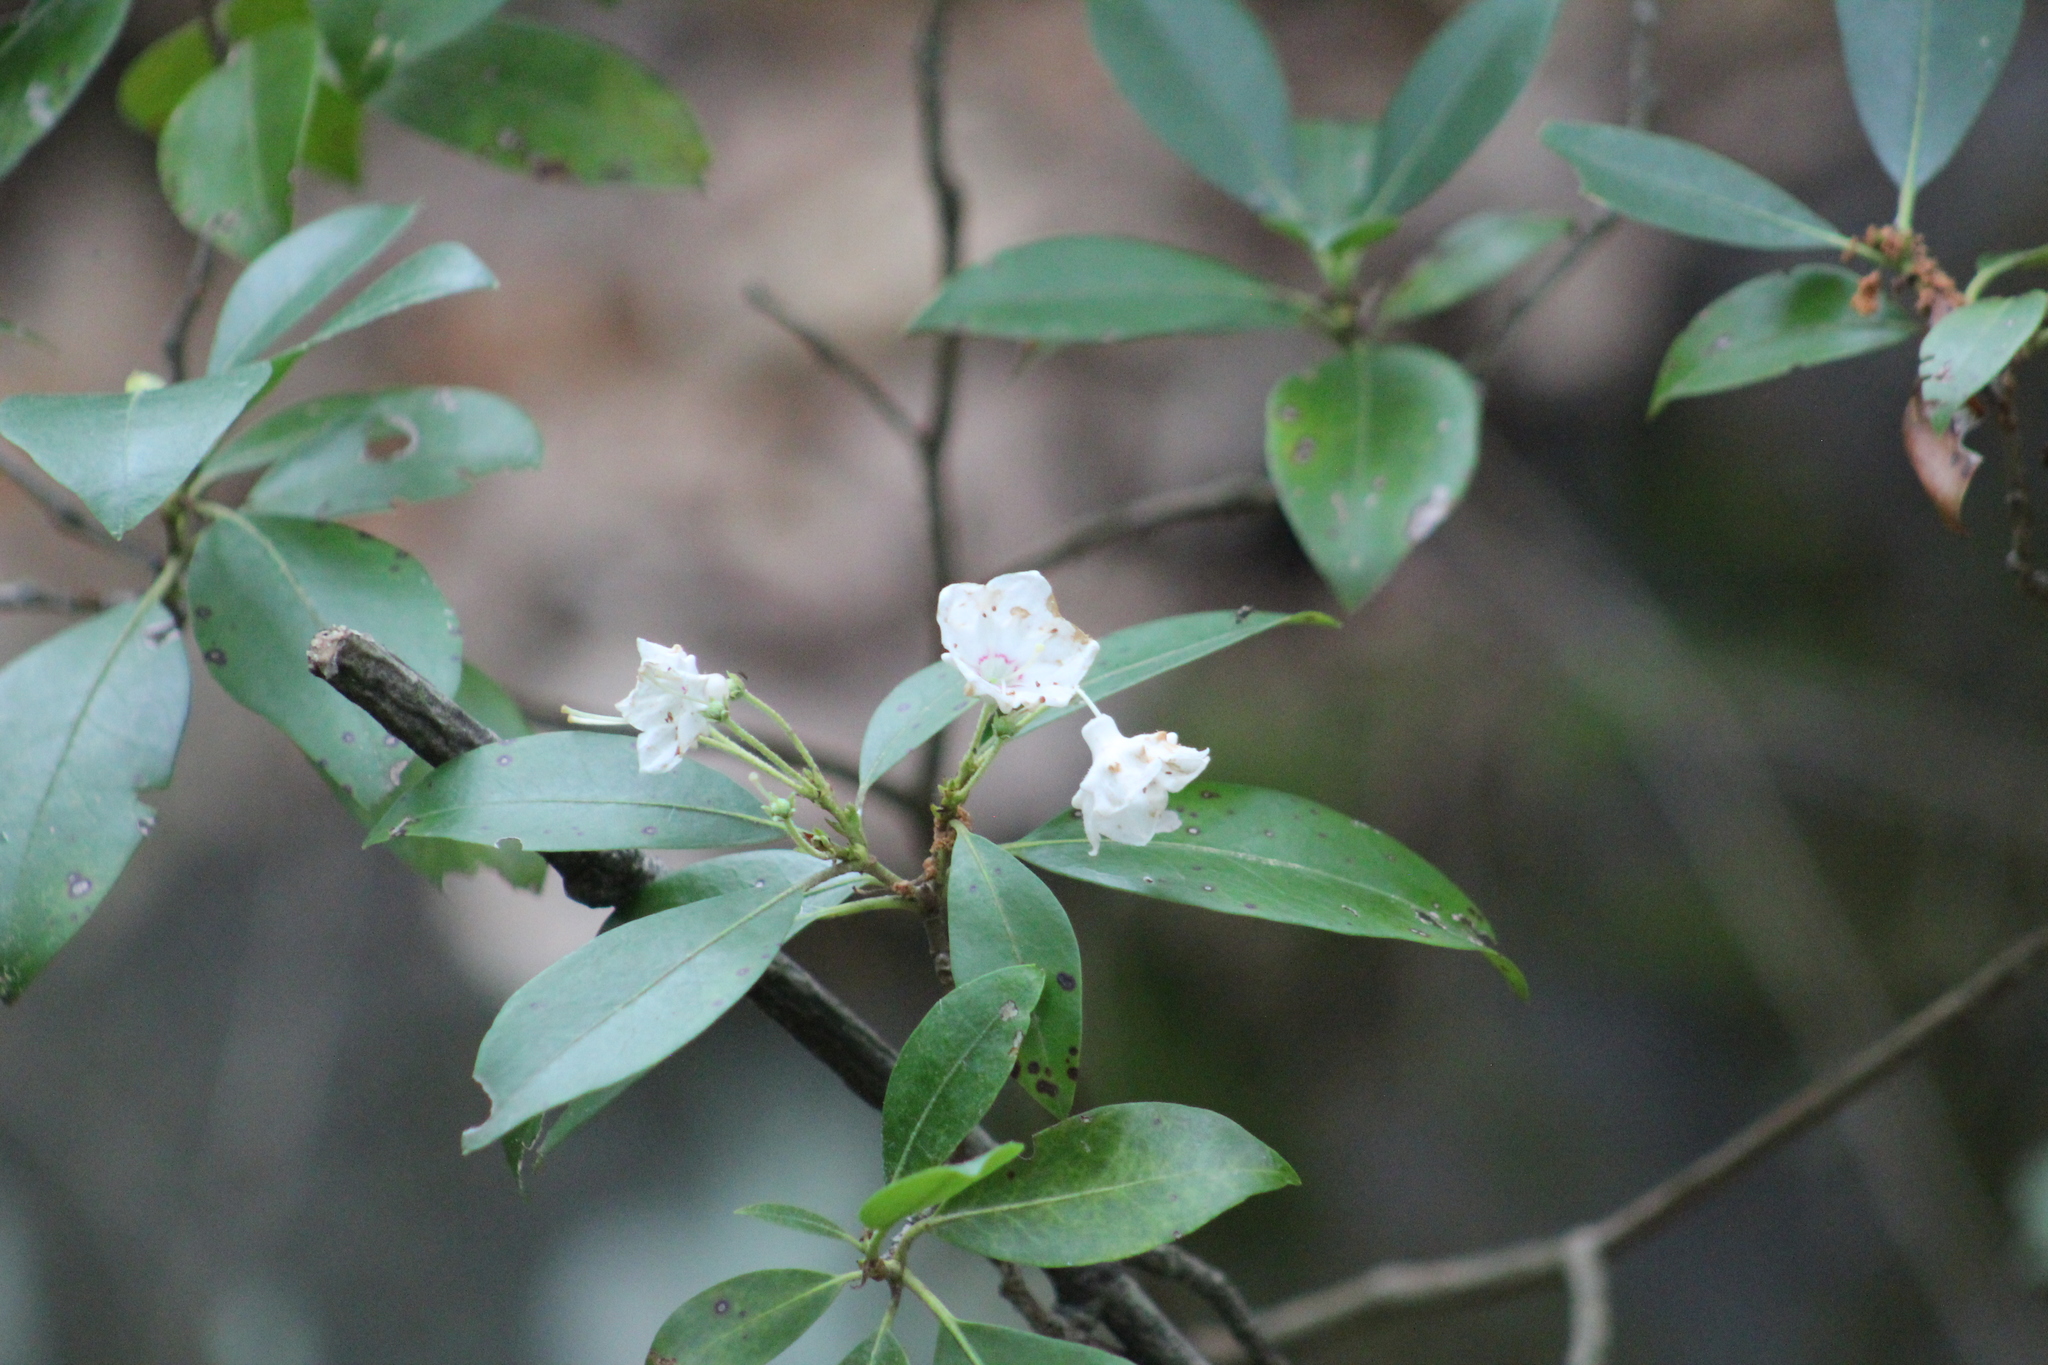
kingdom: Plantae
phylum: Tracheophyta
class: Magnoliopsida
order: Ericales
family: Ericaceae
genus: Kalmia
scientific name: Kalmia latifolia
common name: Mountain-laurel
